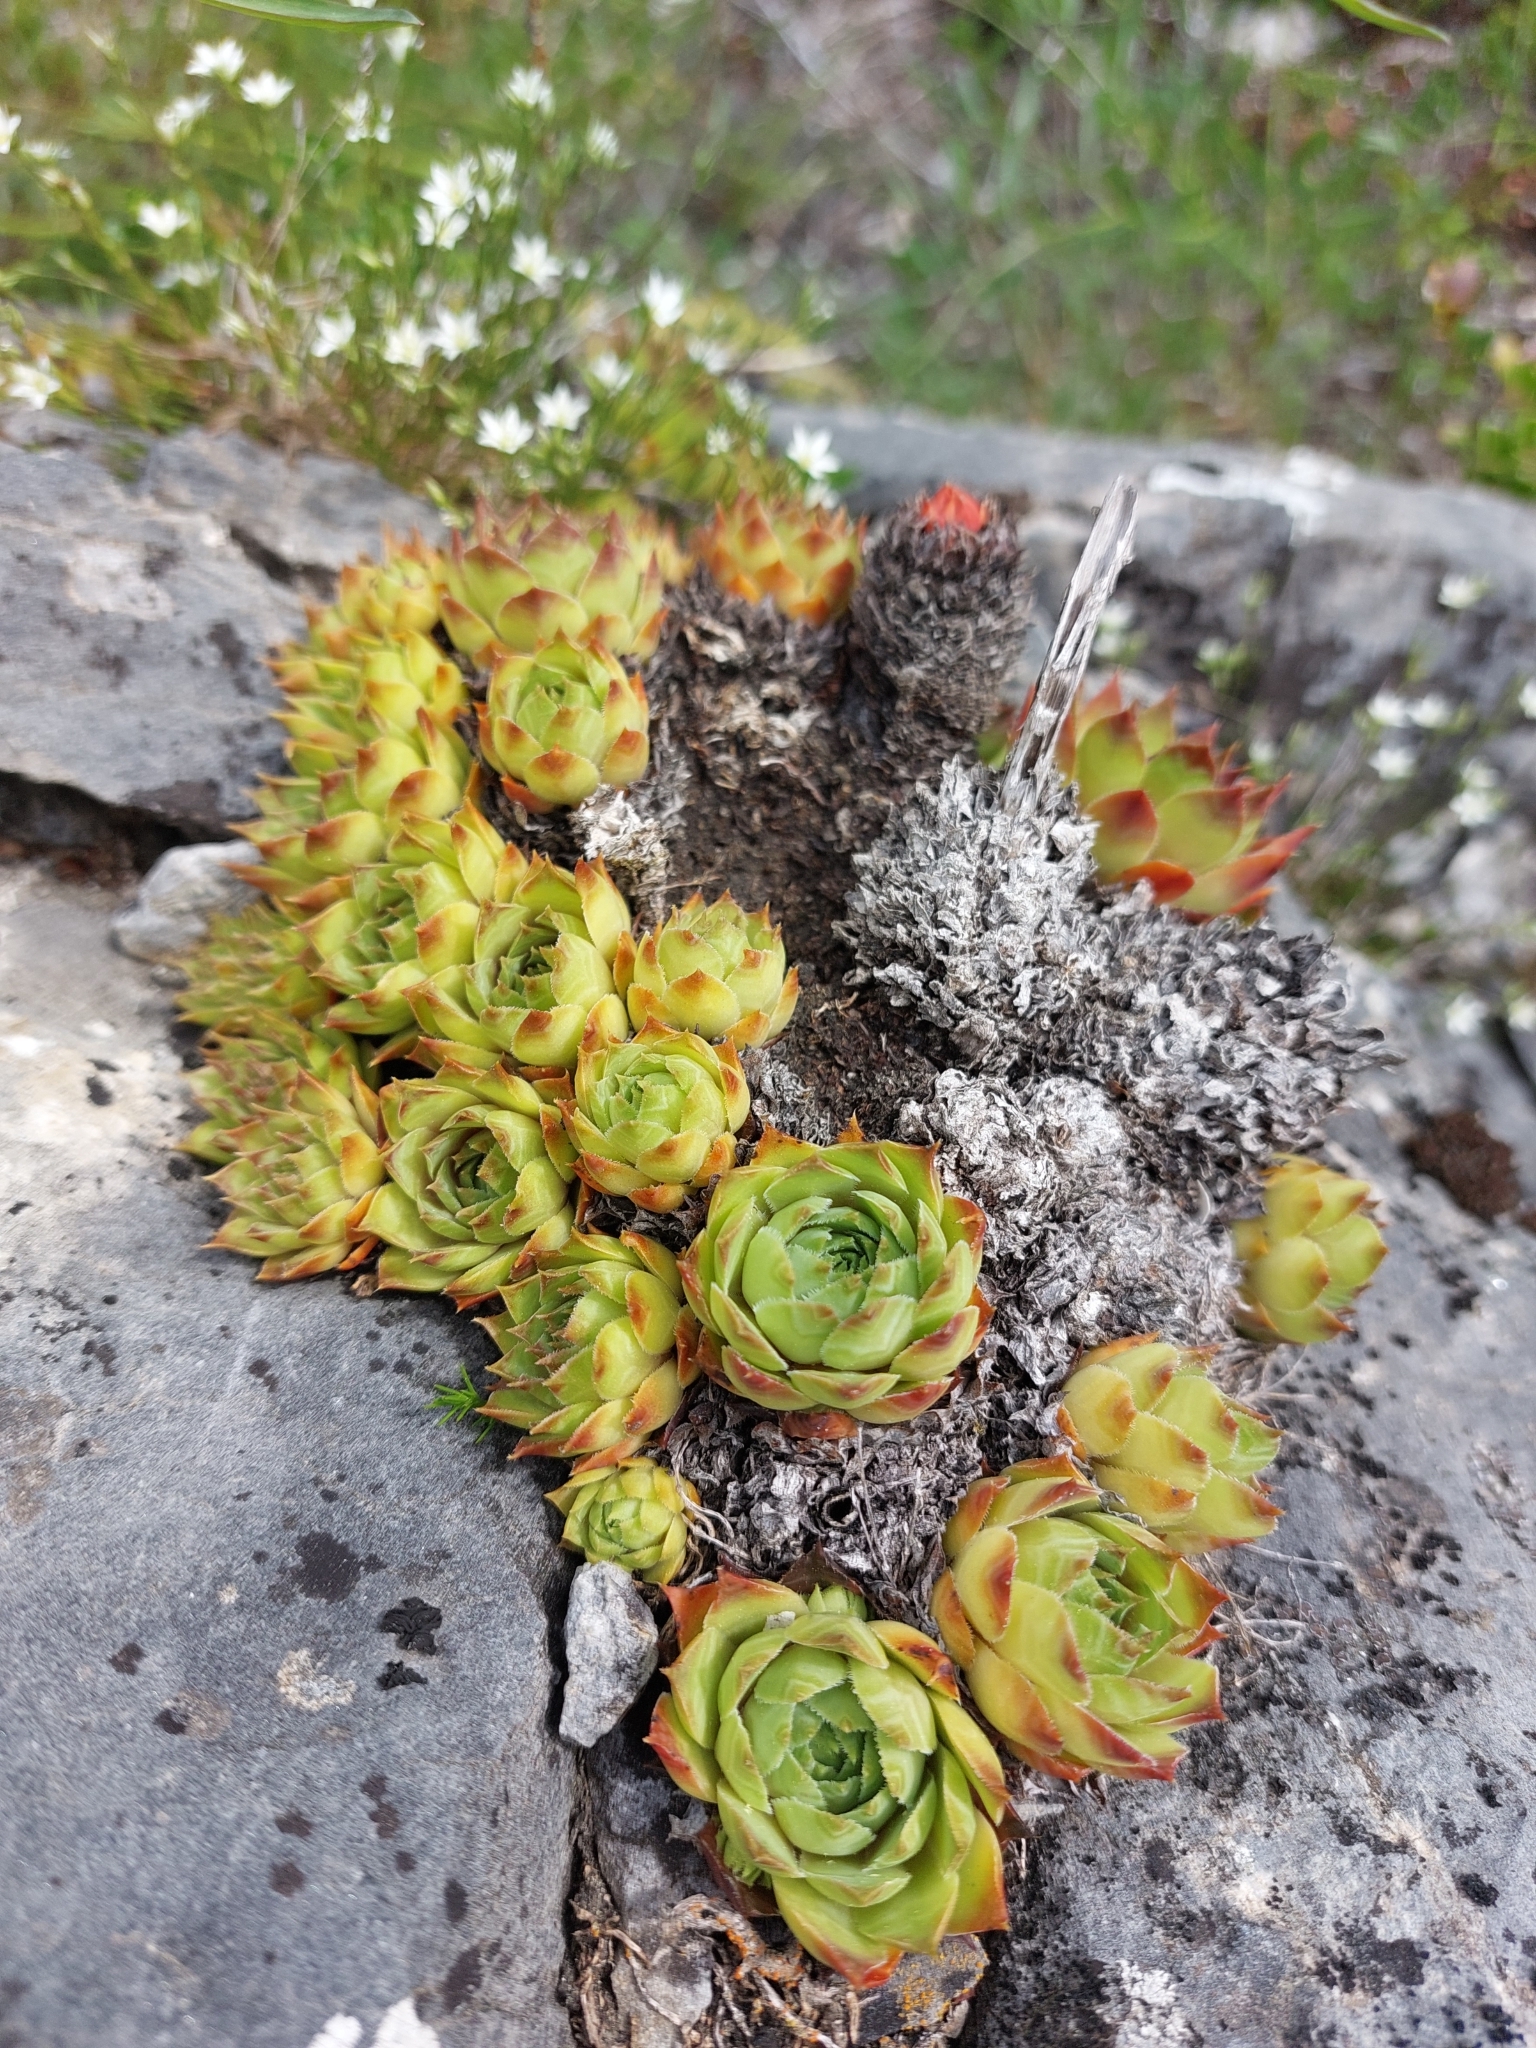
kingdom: Plantae
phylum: Tracheophyta
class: Magnoliopsida
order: Saxifragales
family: Crassulaceae
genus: Sempervivum
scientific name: Sempervivum tectorum
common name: House-leek
